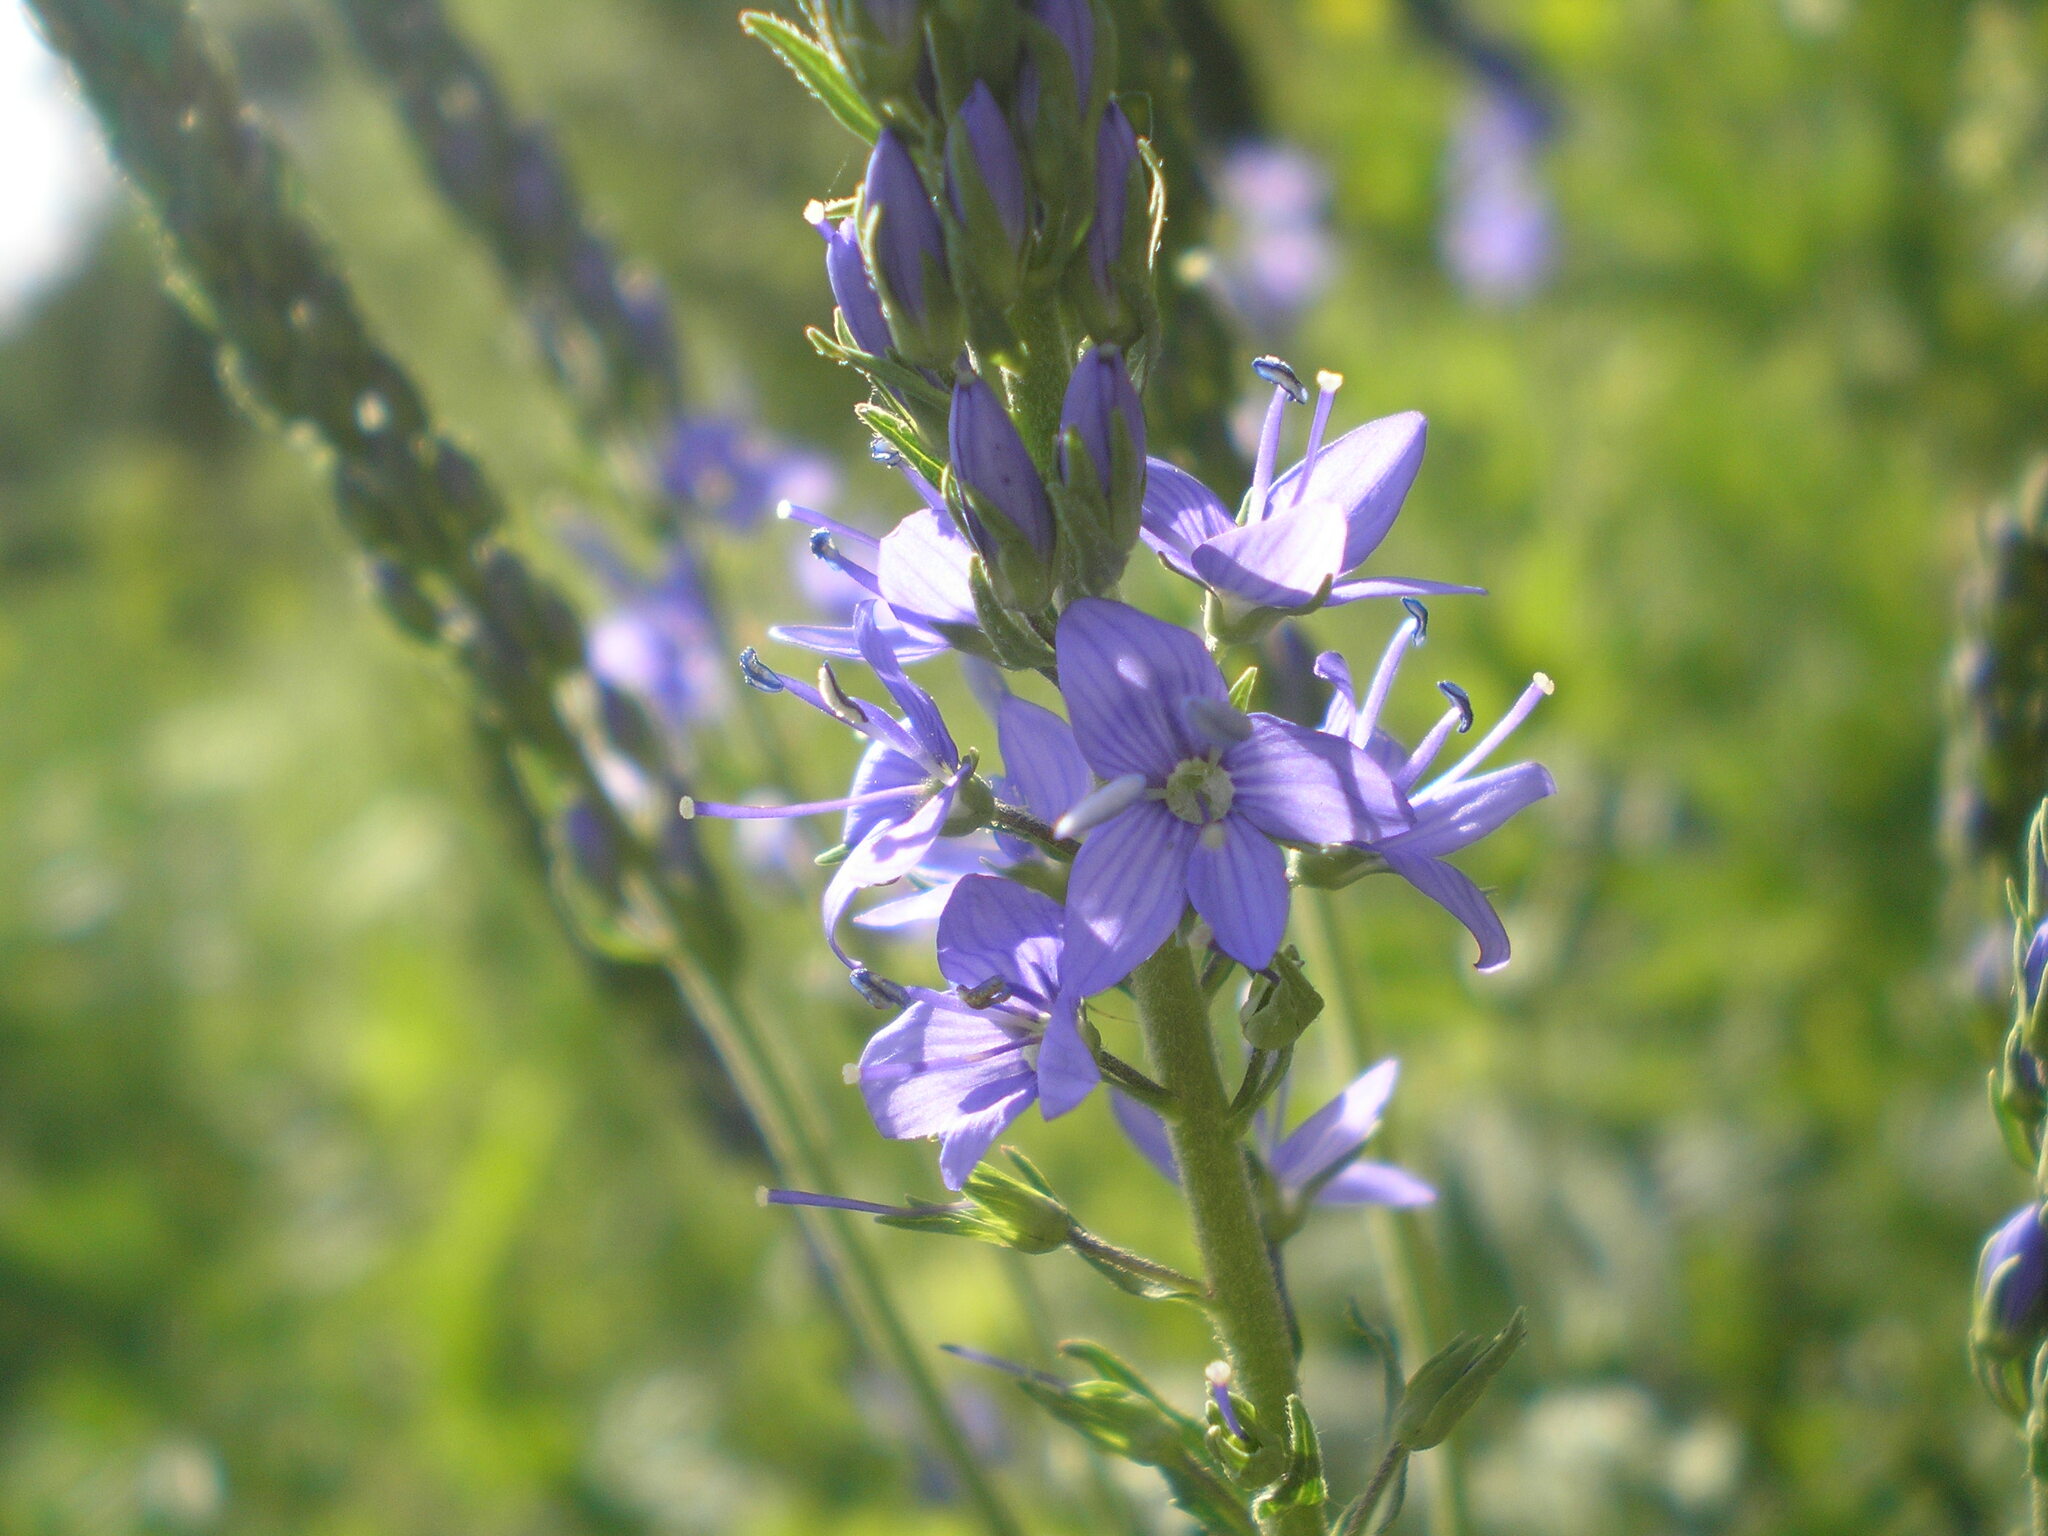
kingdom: Plantae
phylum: Tracheophyta
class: Magnoliopsida
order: Lamiales
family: Plantaginaceae
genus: Veronica
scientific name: Veronica teucrium
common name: Large speedwell
